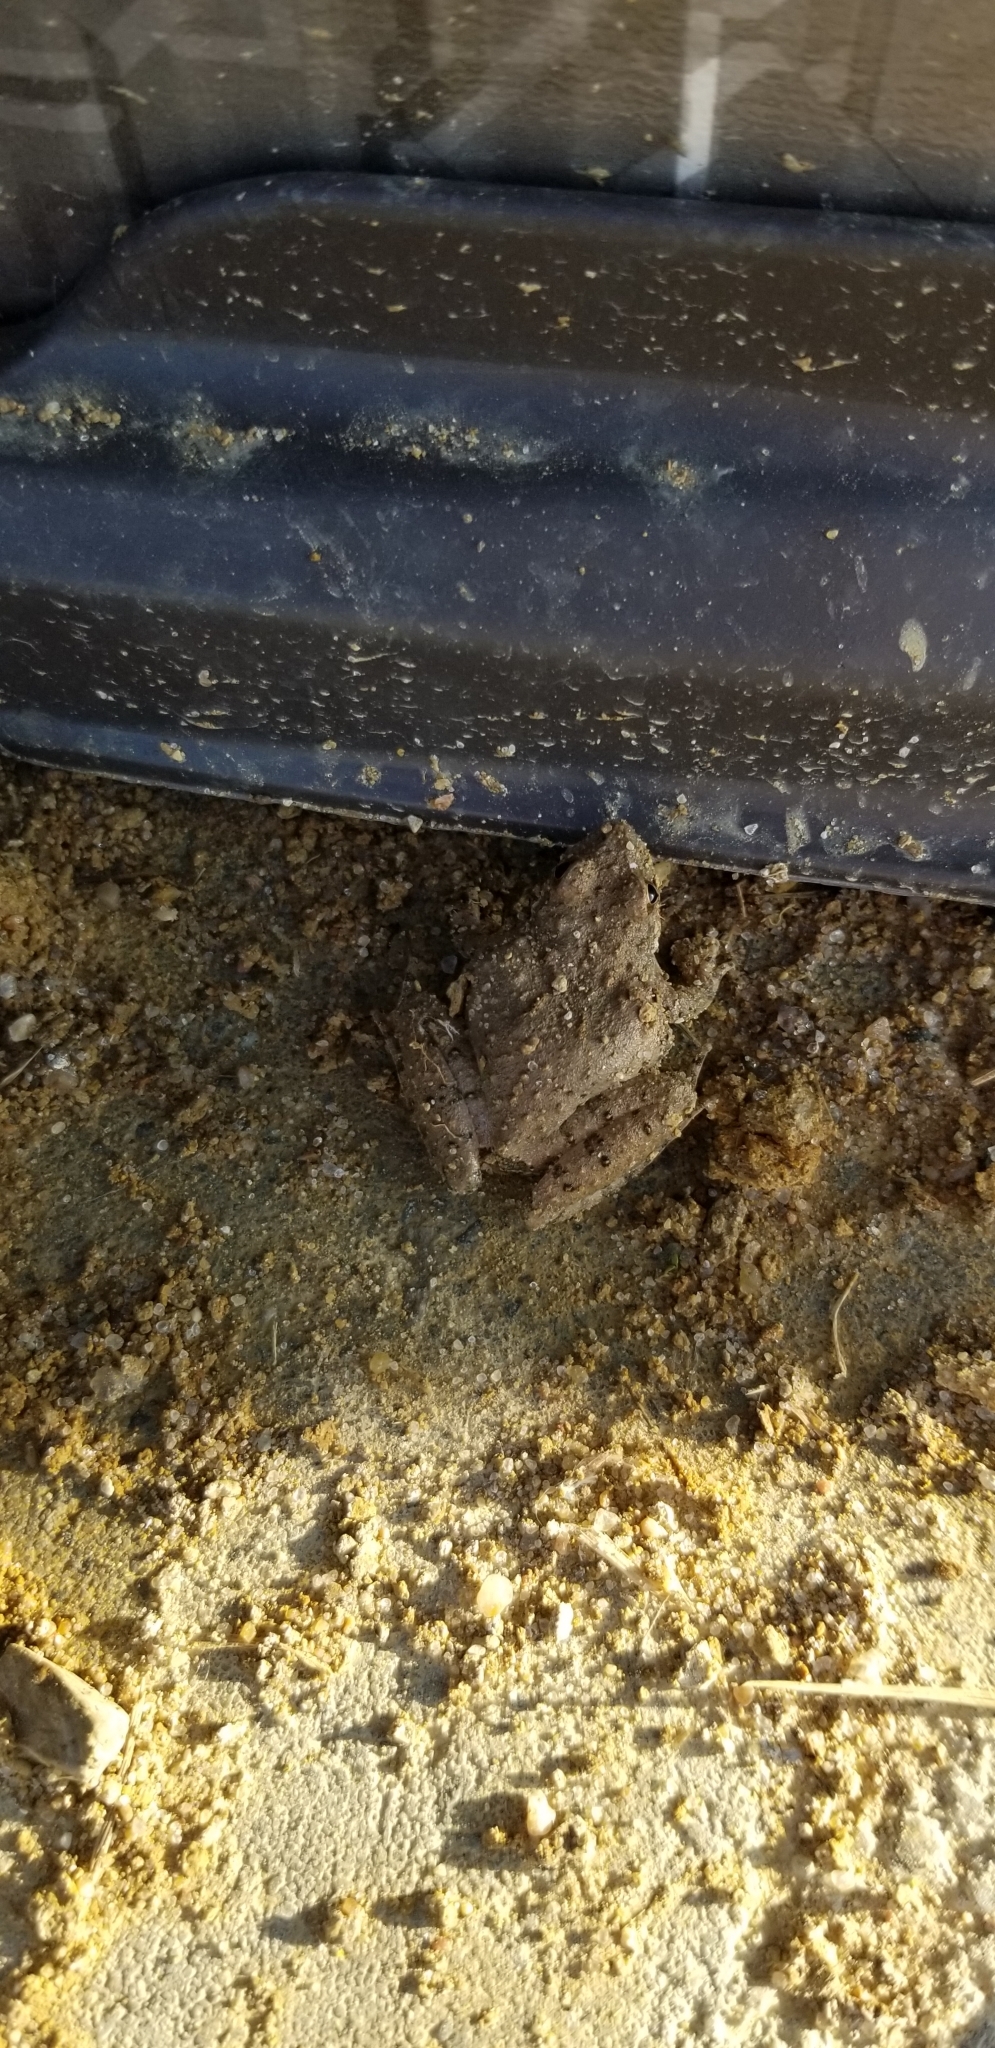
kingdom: Animalia
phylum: Chordata
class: Amphibia
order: Anura
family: Hylidae
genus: Acris
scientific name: Acris blanchardi
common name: Blanchard's cricket frog
